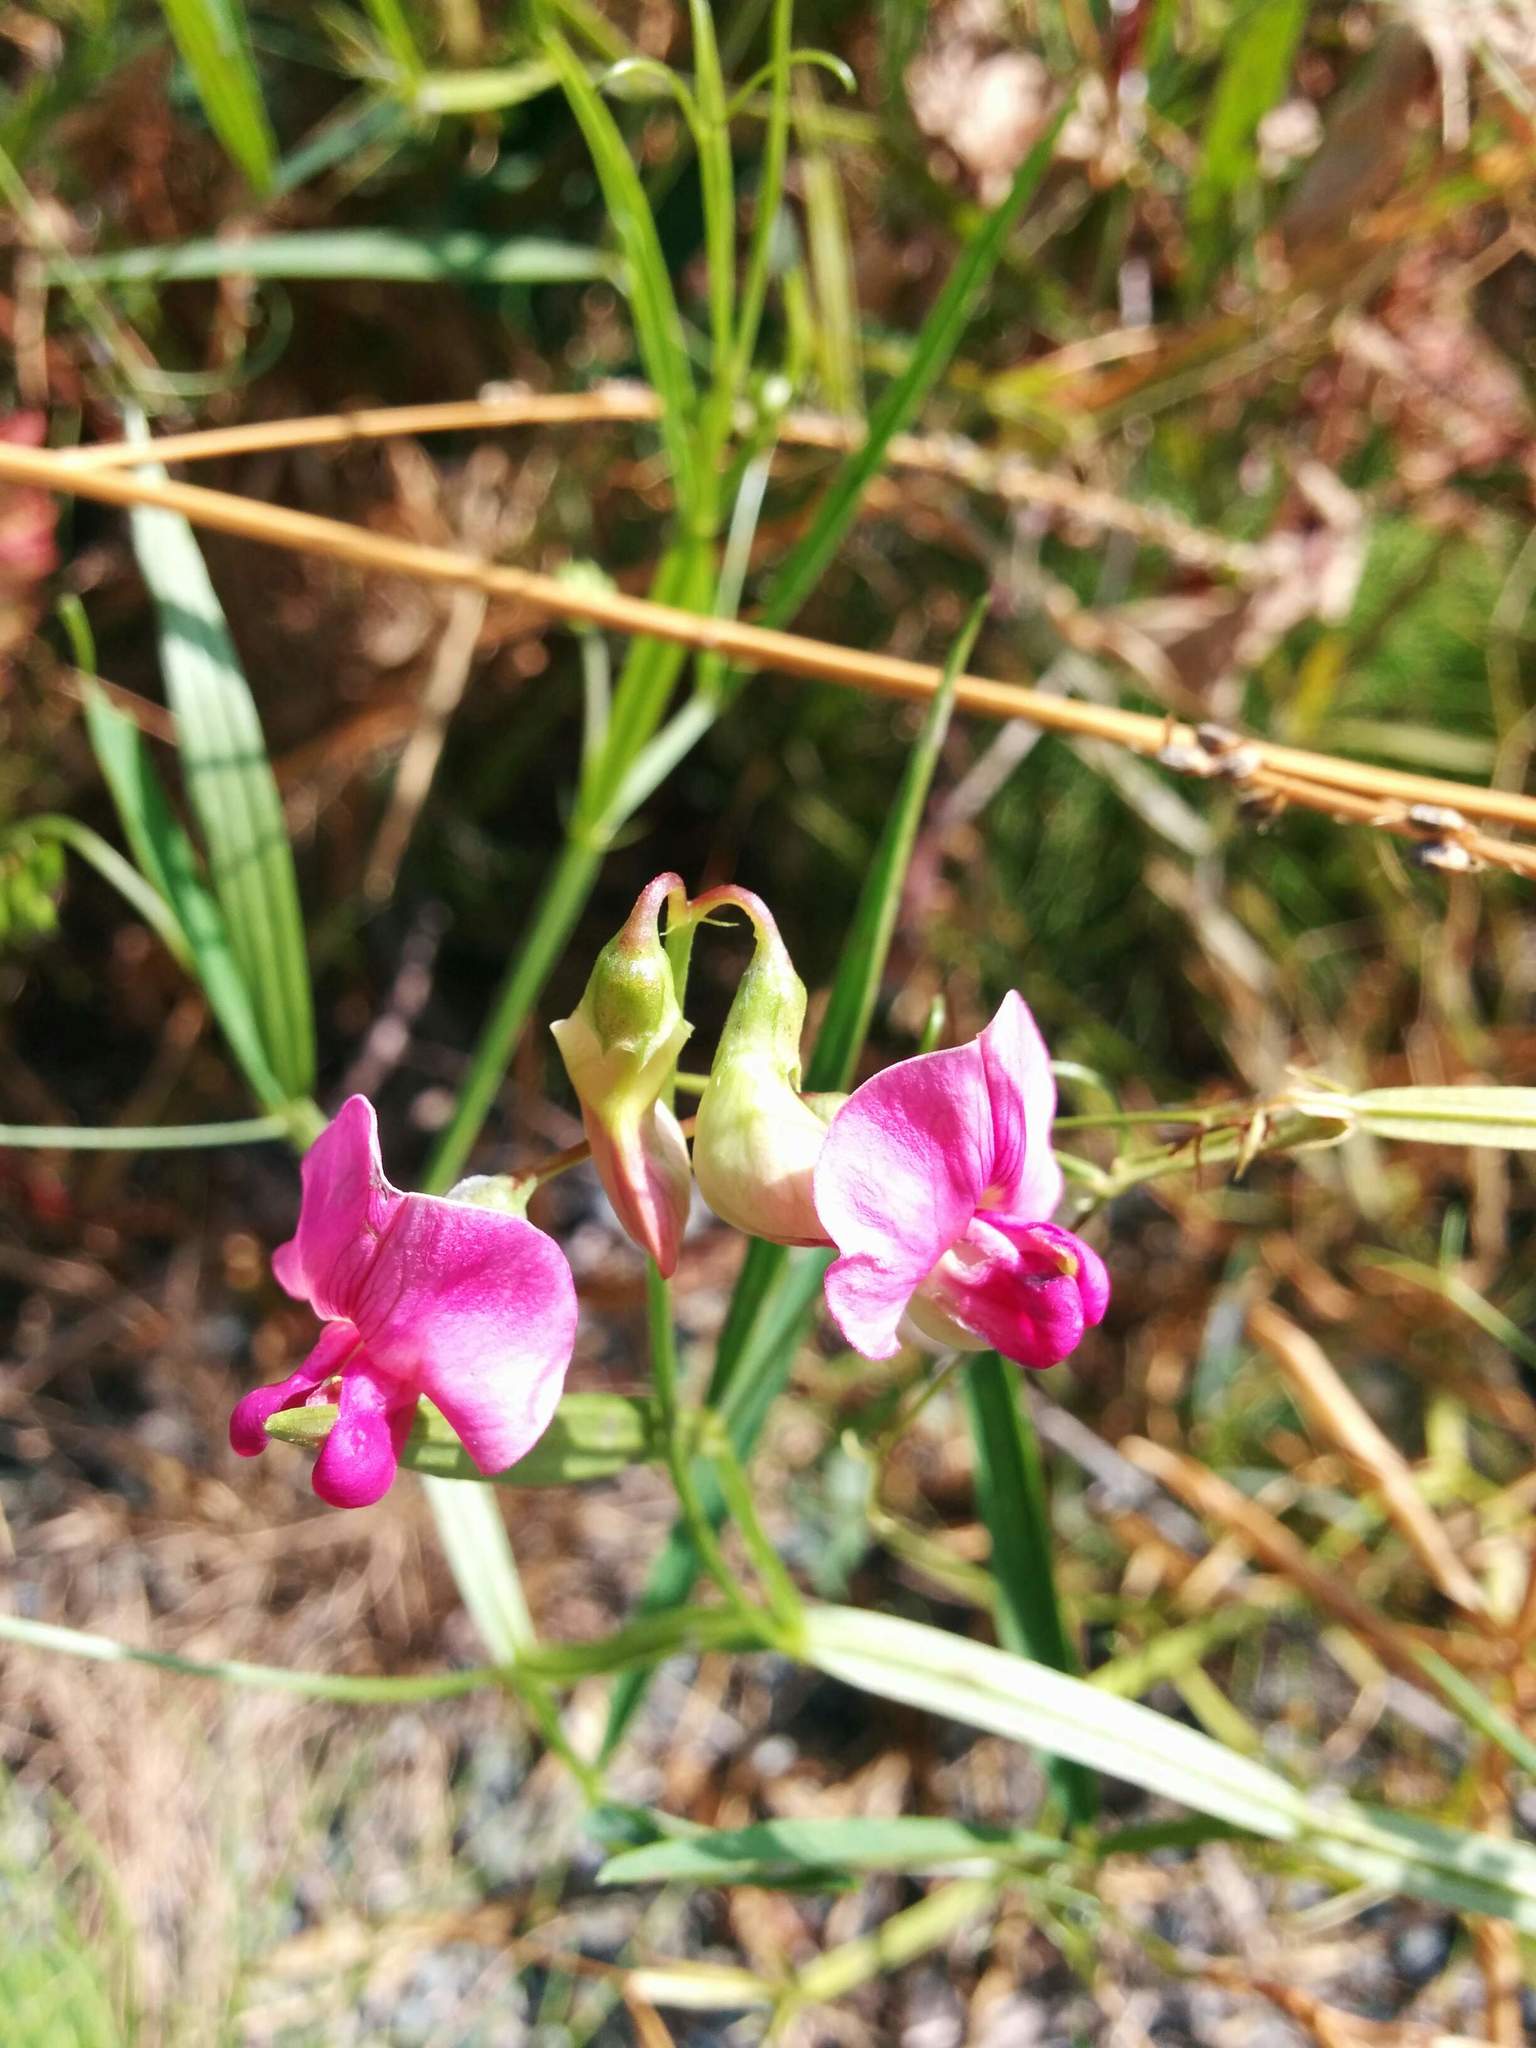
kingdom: Plantae
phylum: Tracheophyta
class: Magnoliopsida
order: Fabales
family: Fabaceae
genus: Lathyrus
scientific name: Lathyrus sylvestris
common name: Flat pea
